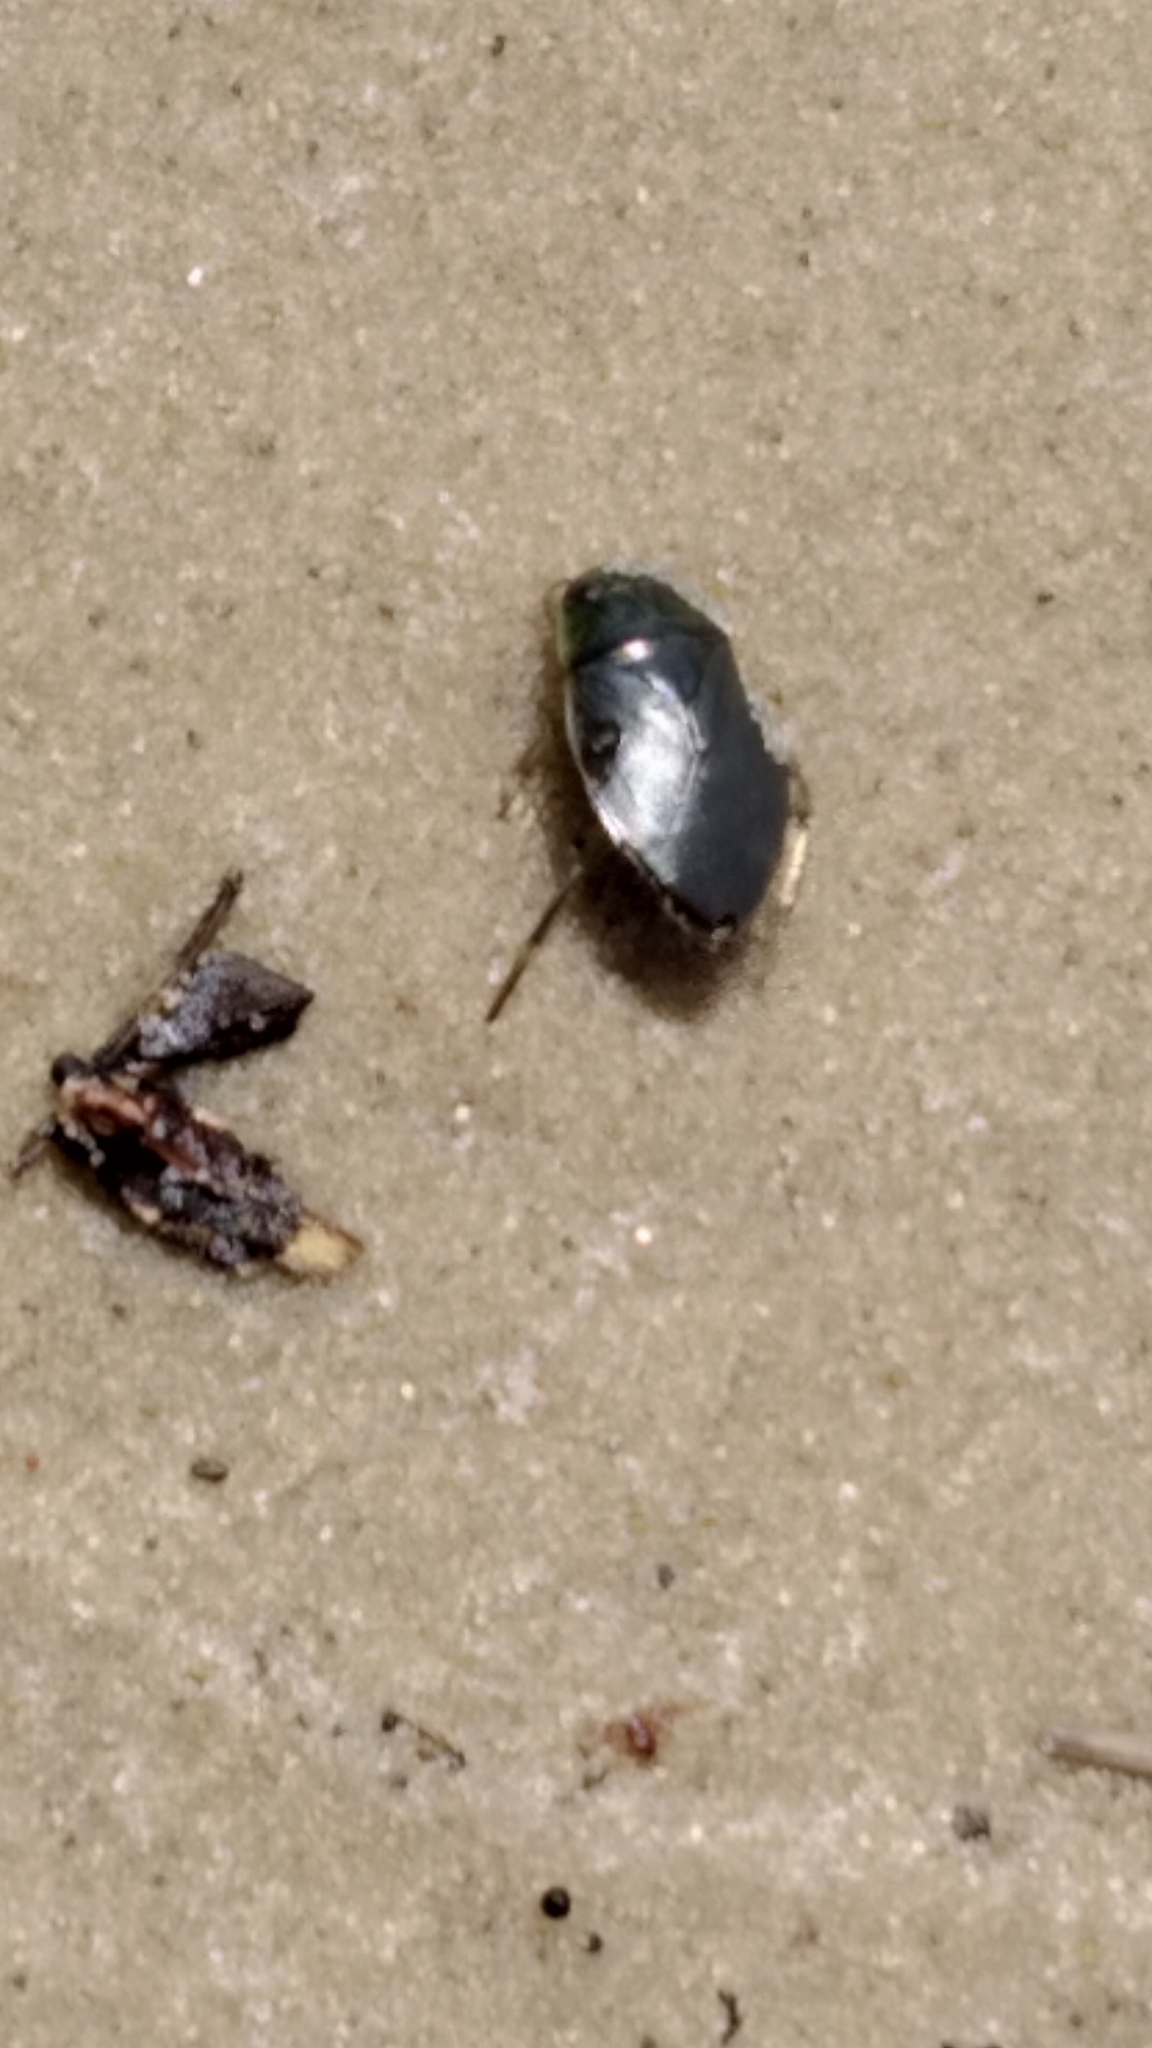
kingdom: Animalia
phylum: Arthropoda
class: Insecta
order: Hemiptera
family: Naucoridae
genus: Ilyocoris
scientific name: Ilyocoris cimicoides
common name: Saucer bugs
